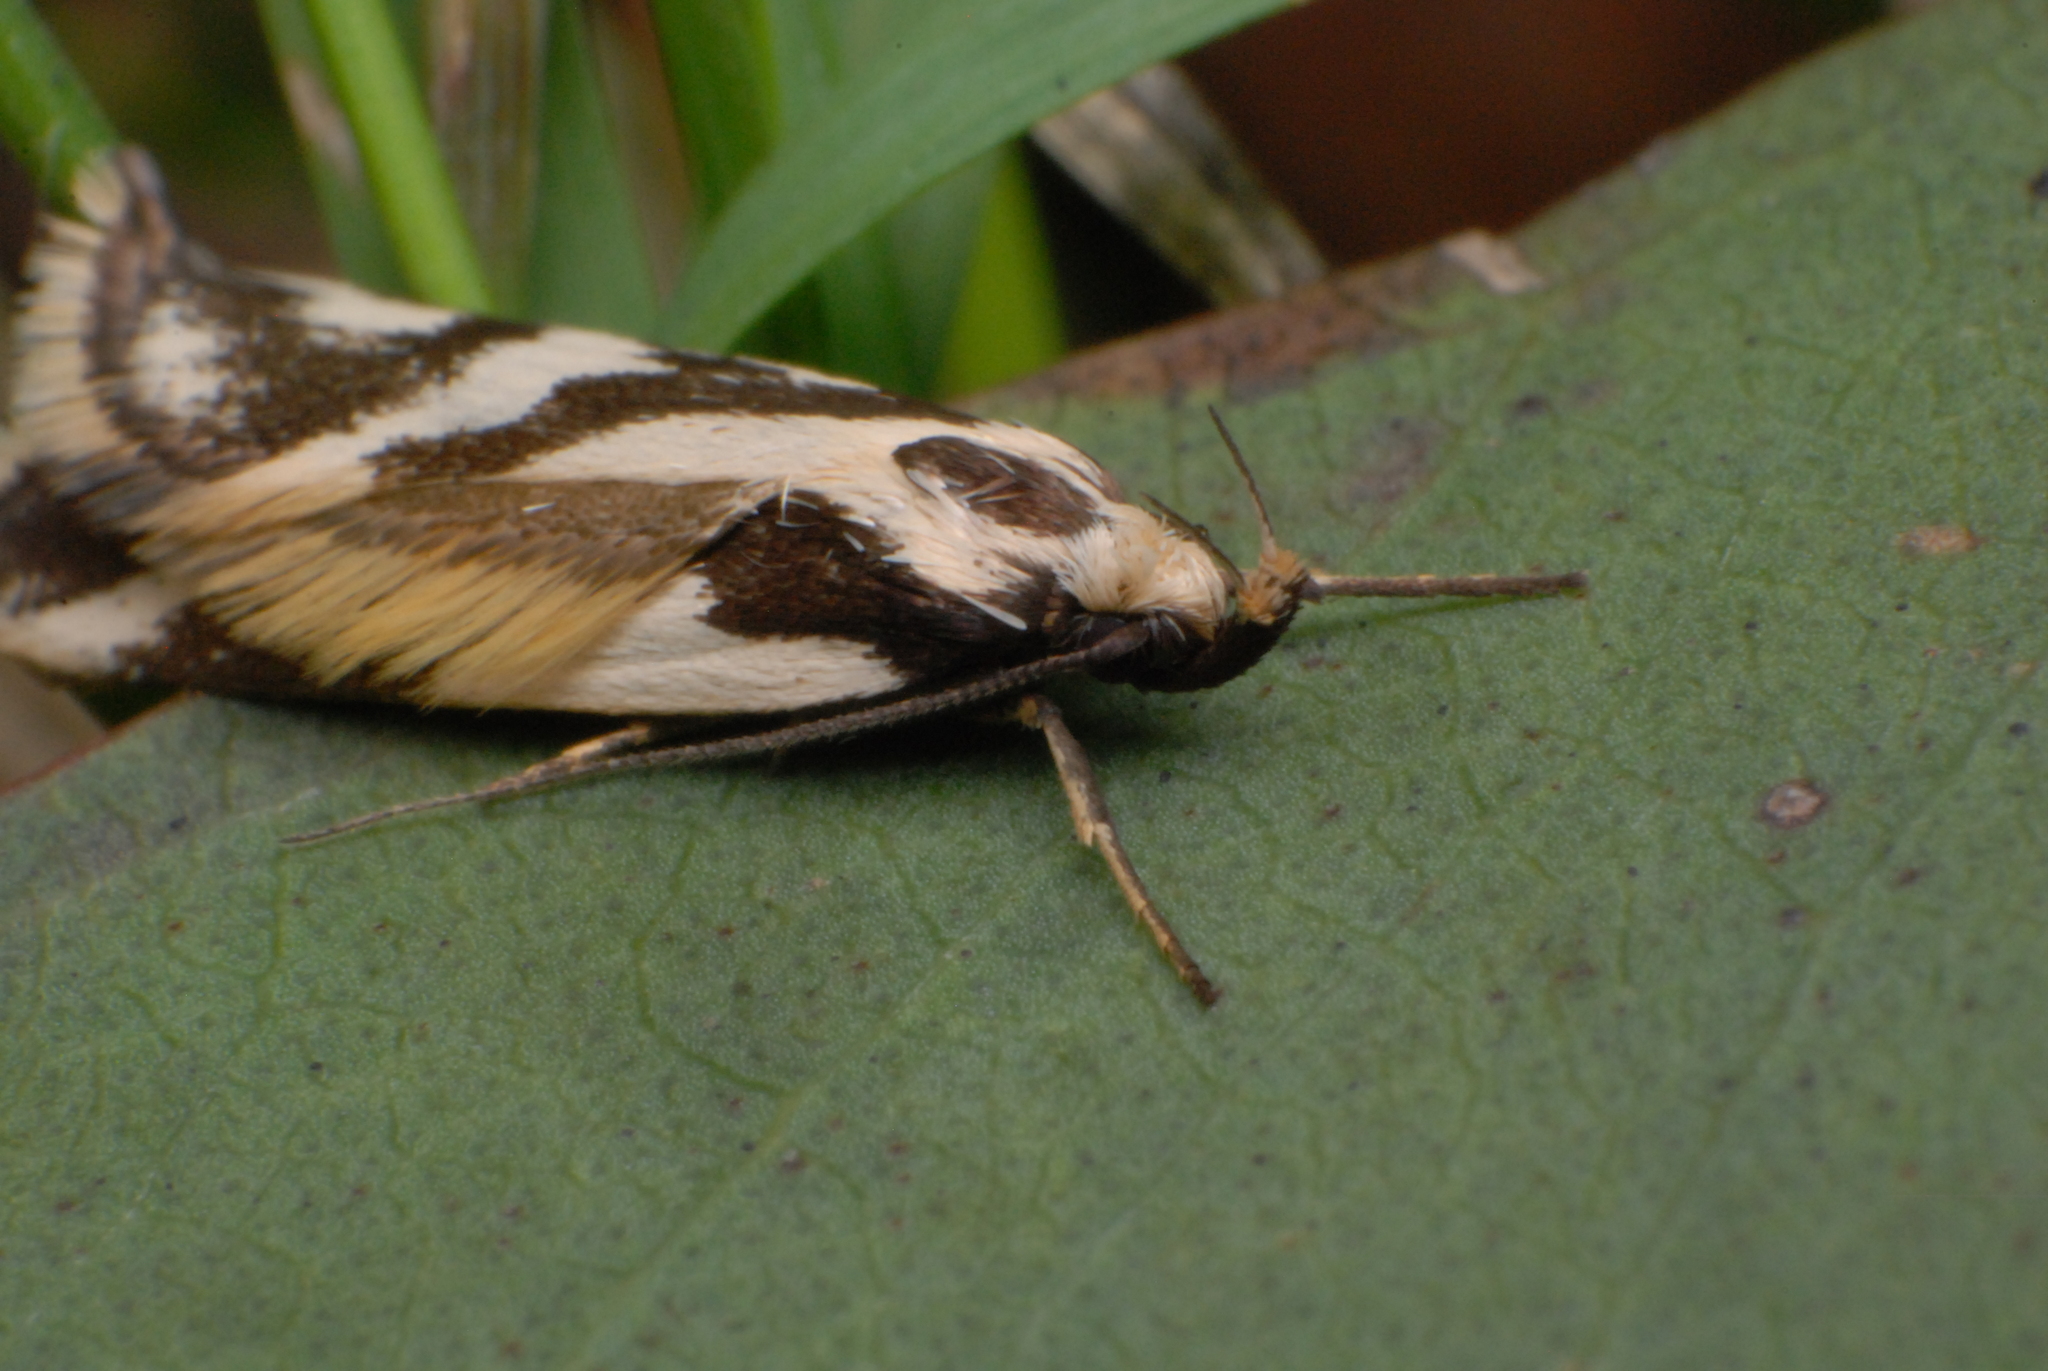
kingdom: Animalia
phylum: Arthropoda
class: Insecta
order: Lepidoptera
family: Oecophoridae
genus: Epithymema
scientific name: Epithymema incomposita
